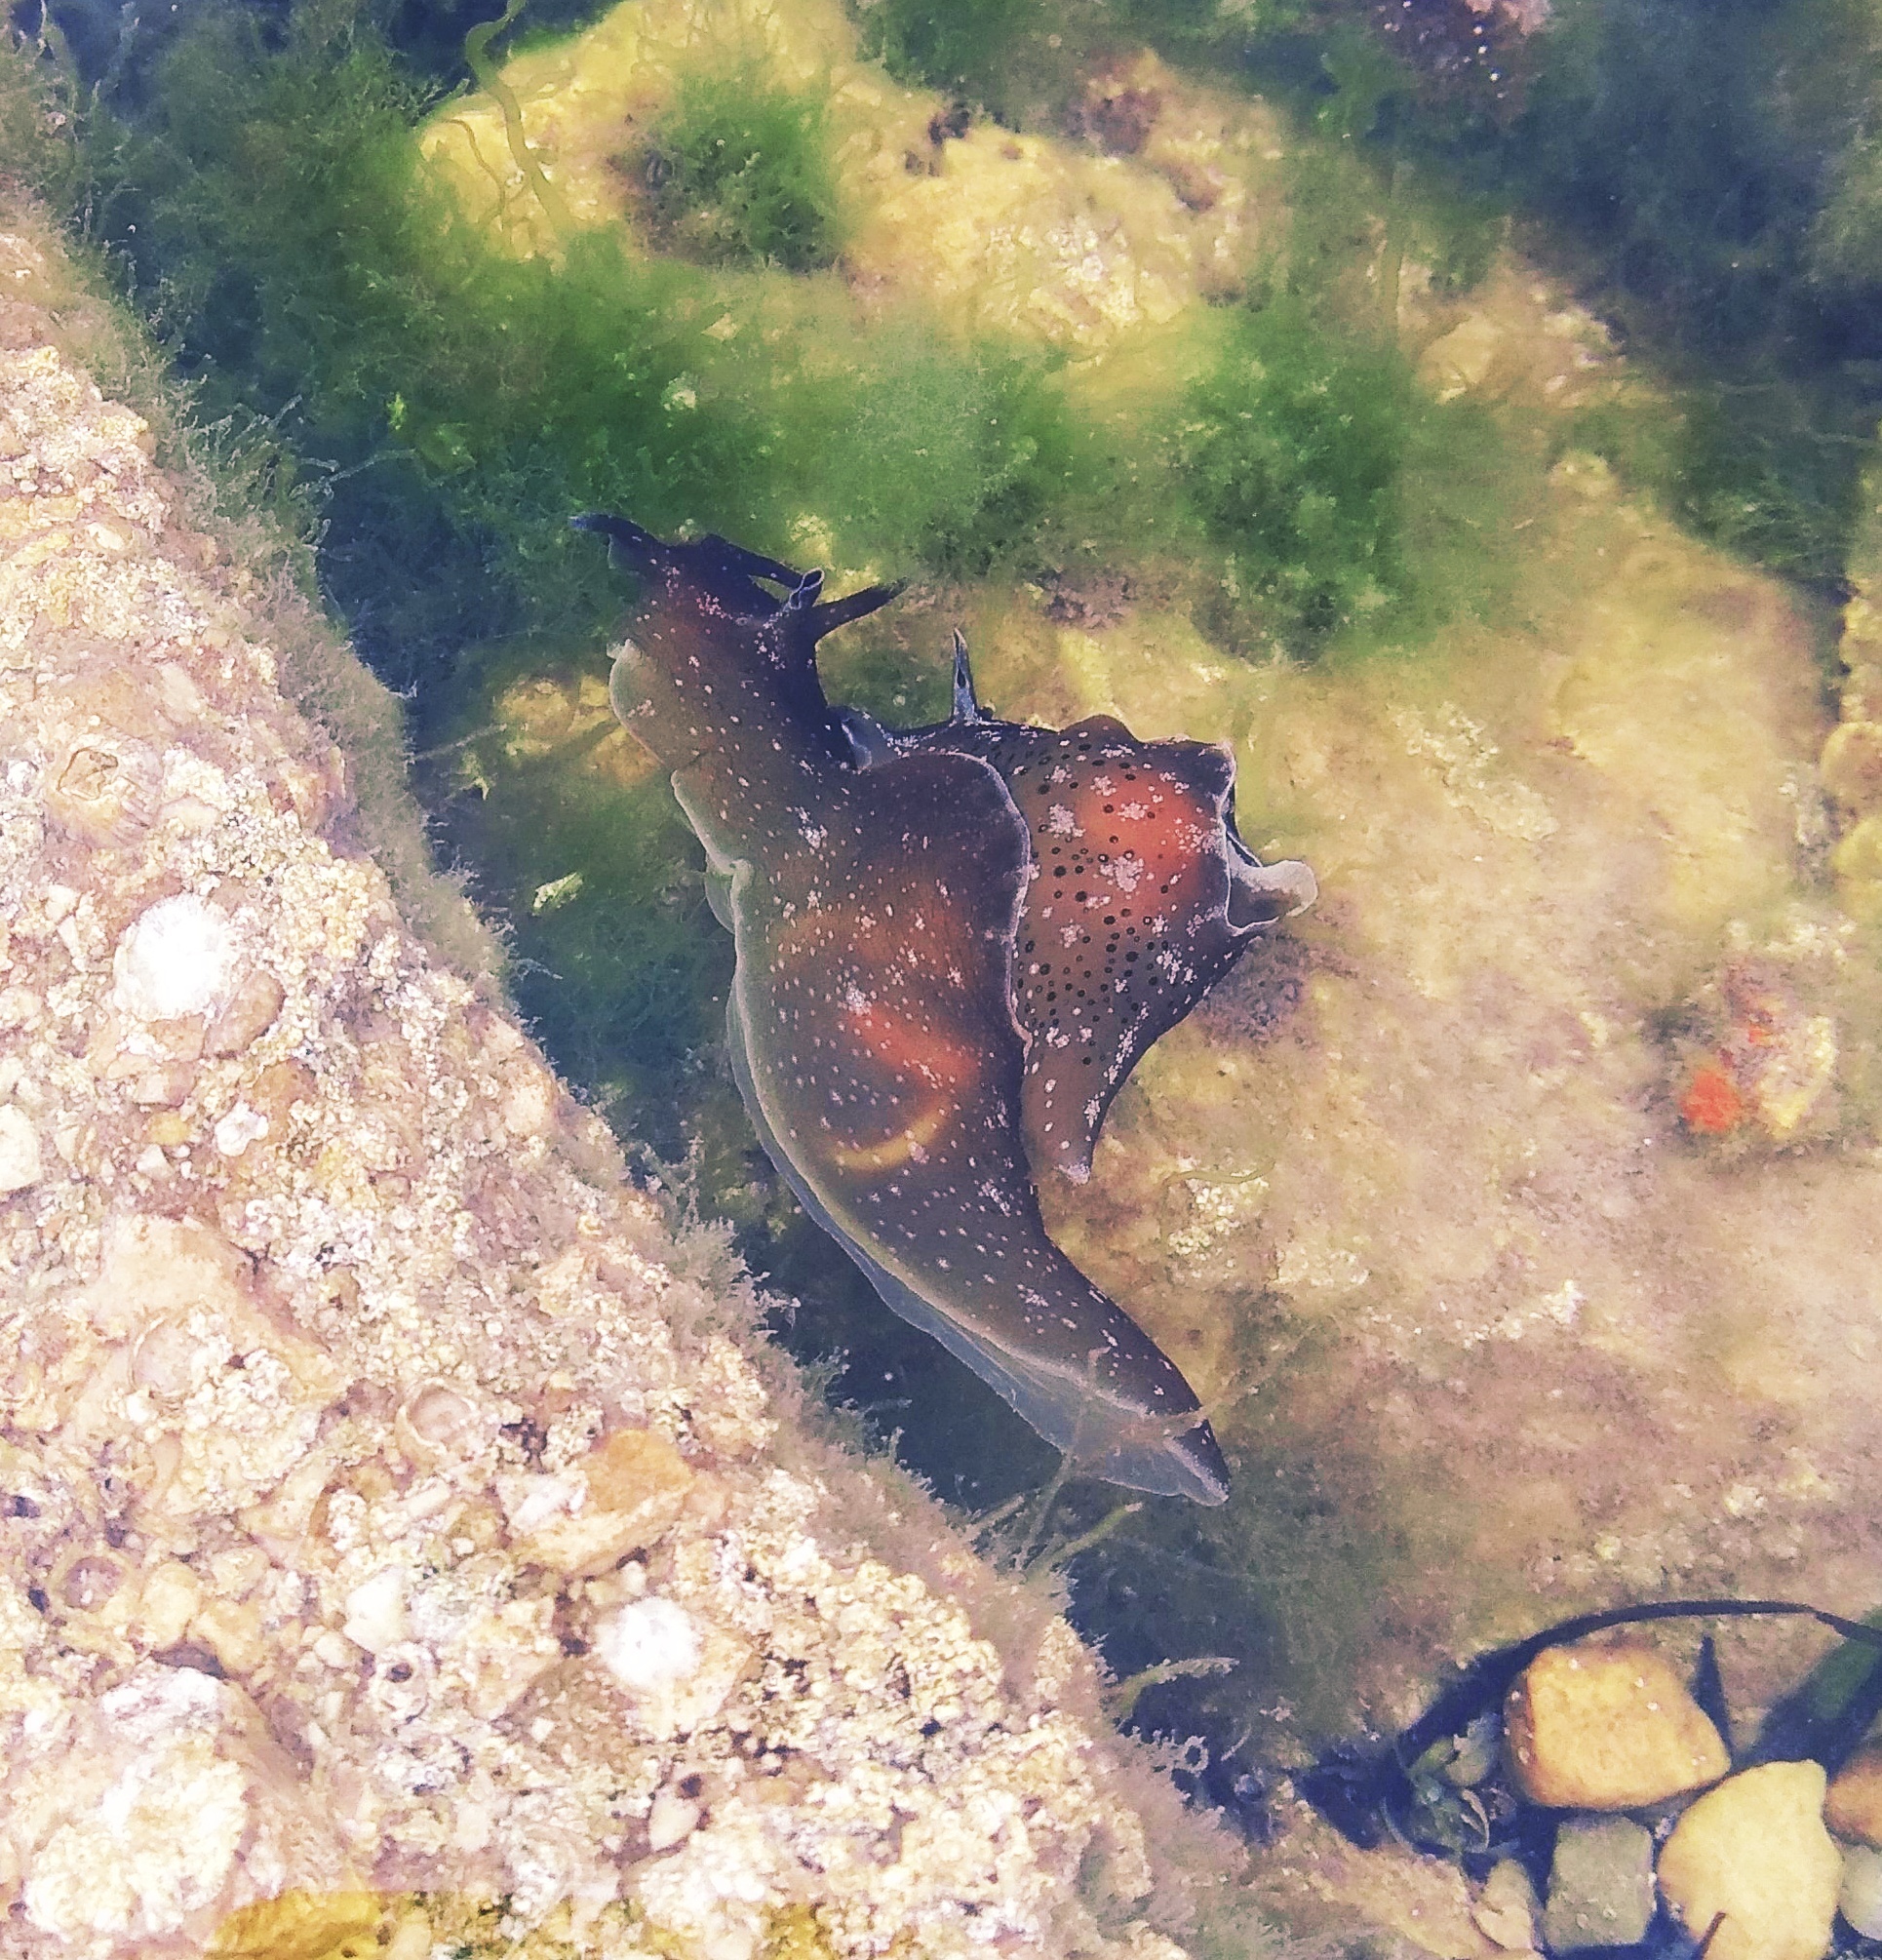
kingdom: Animalia
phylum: Mollusca
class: Gastropoda
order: Aplysiida
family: Aplysiidae
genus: Aplysia
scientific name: Aplysia punctata
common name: Common sea hare
